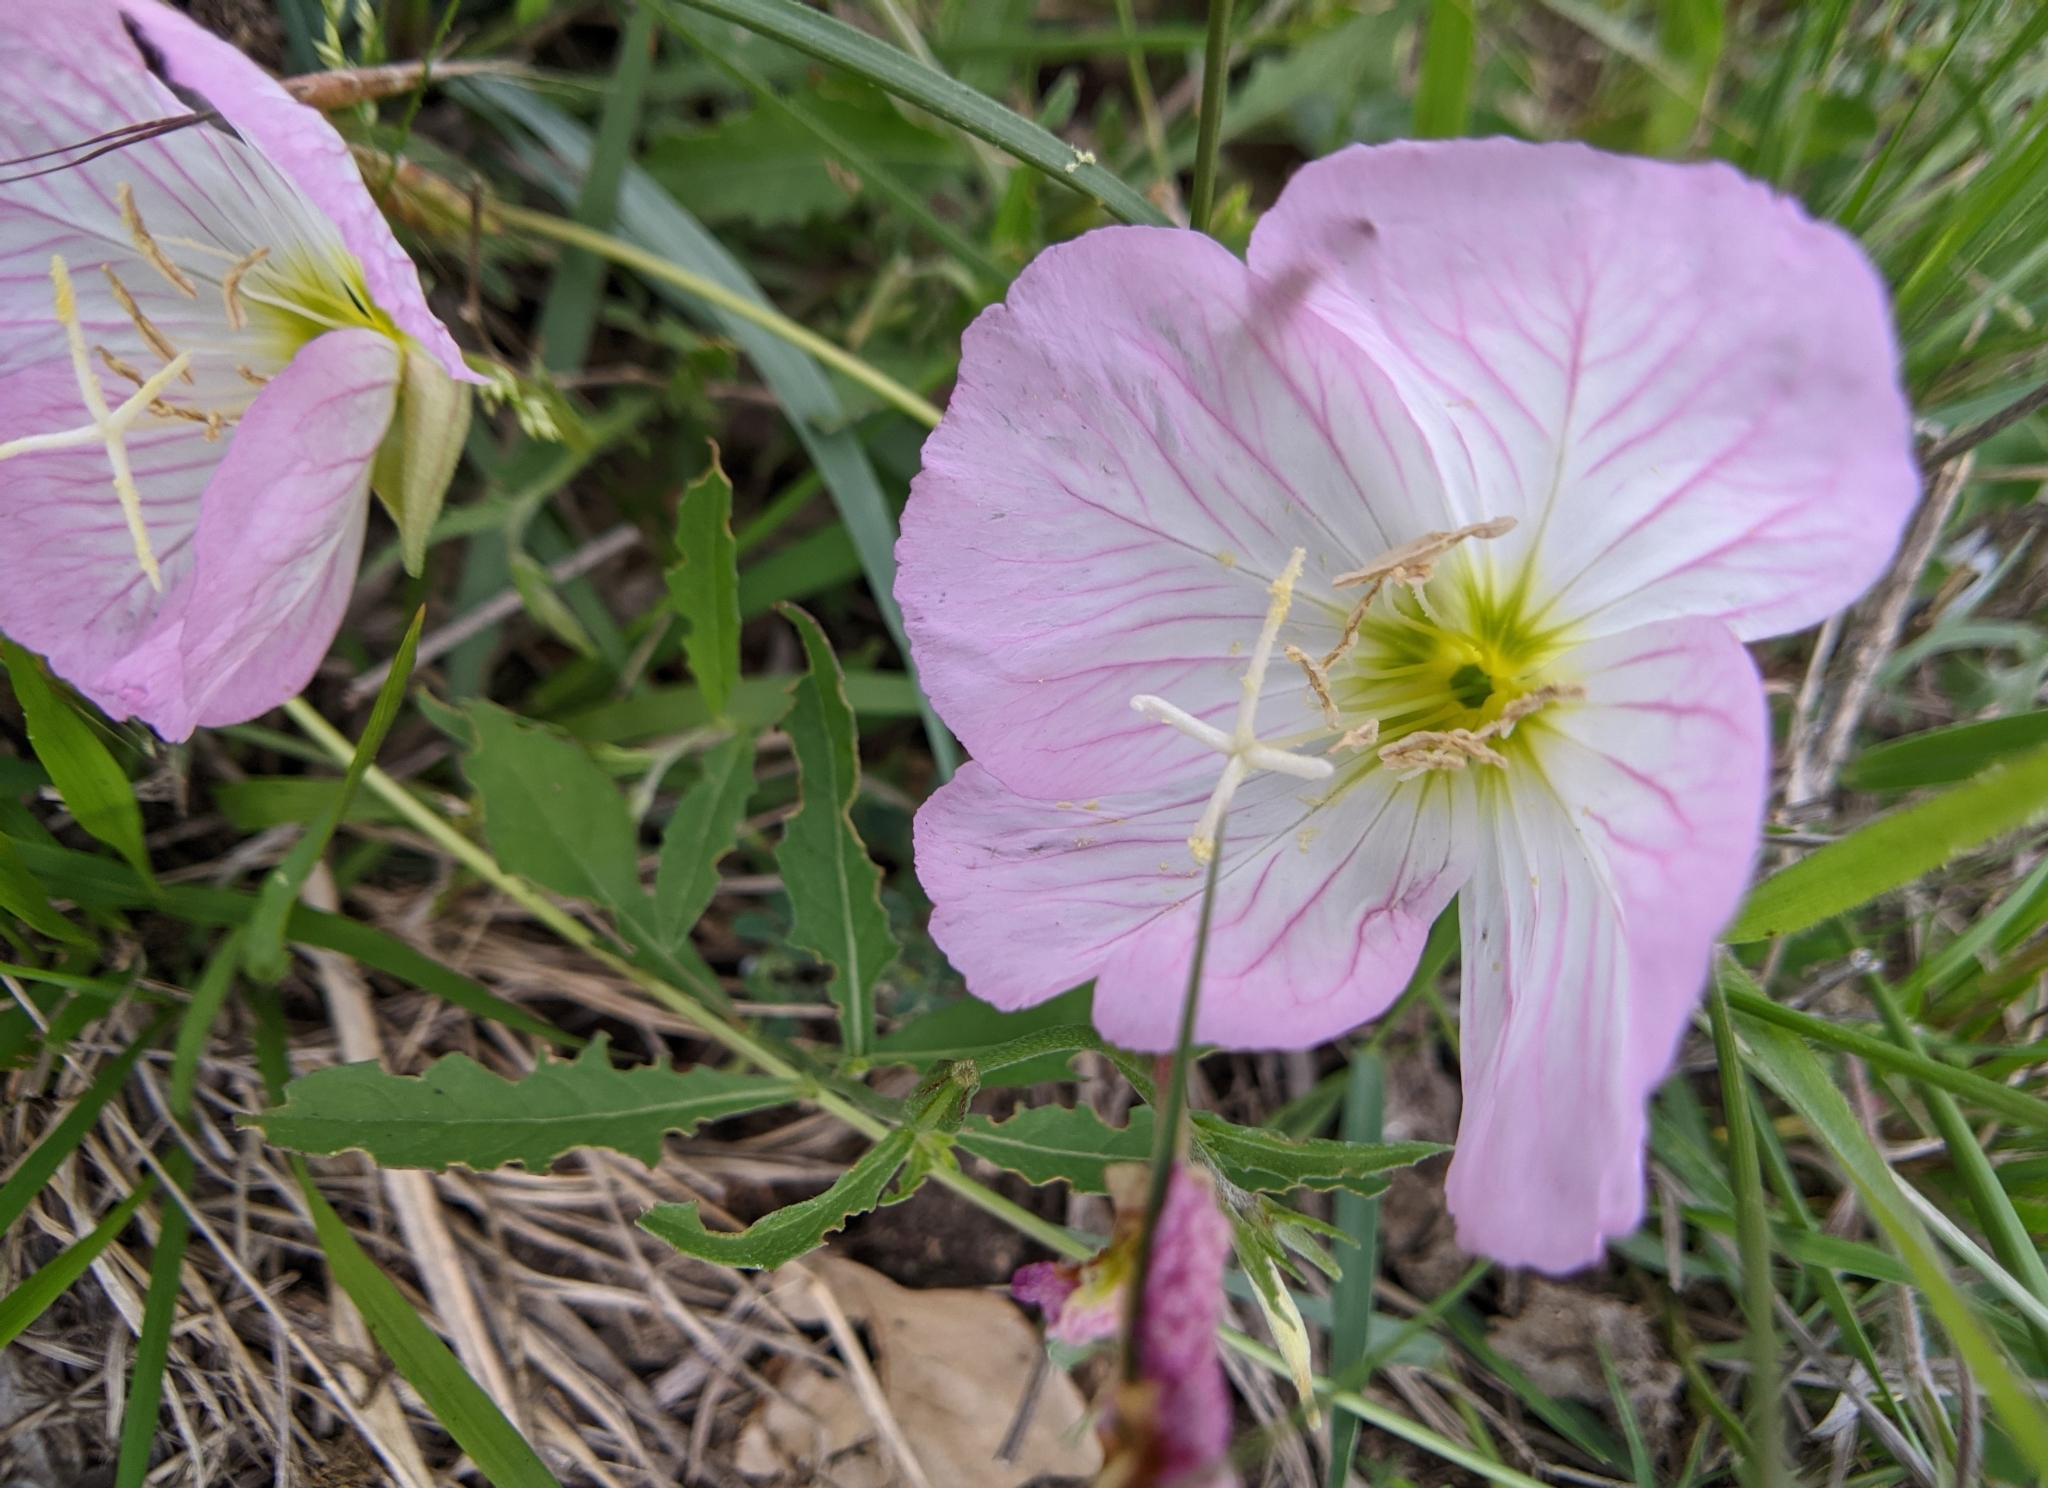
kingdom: Plantae
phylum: Tracheophyta
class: Magnoliopsida
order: Myrtales
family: Onagraceae
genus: Oenothera
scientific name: Oenothera speciosa
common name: White evening-primrose
